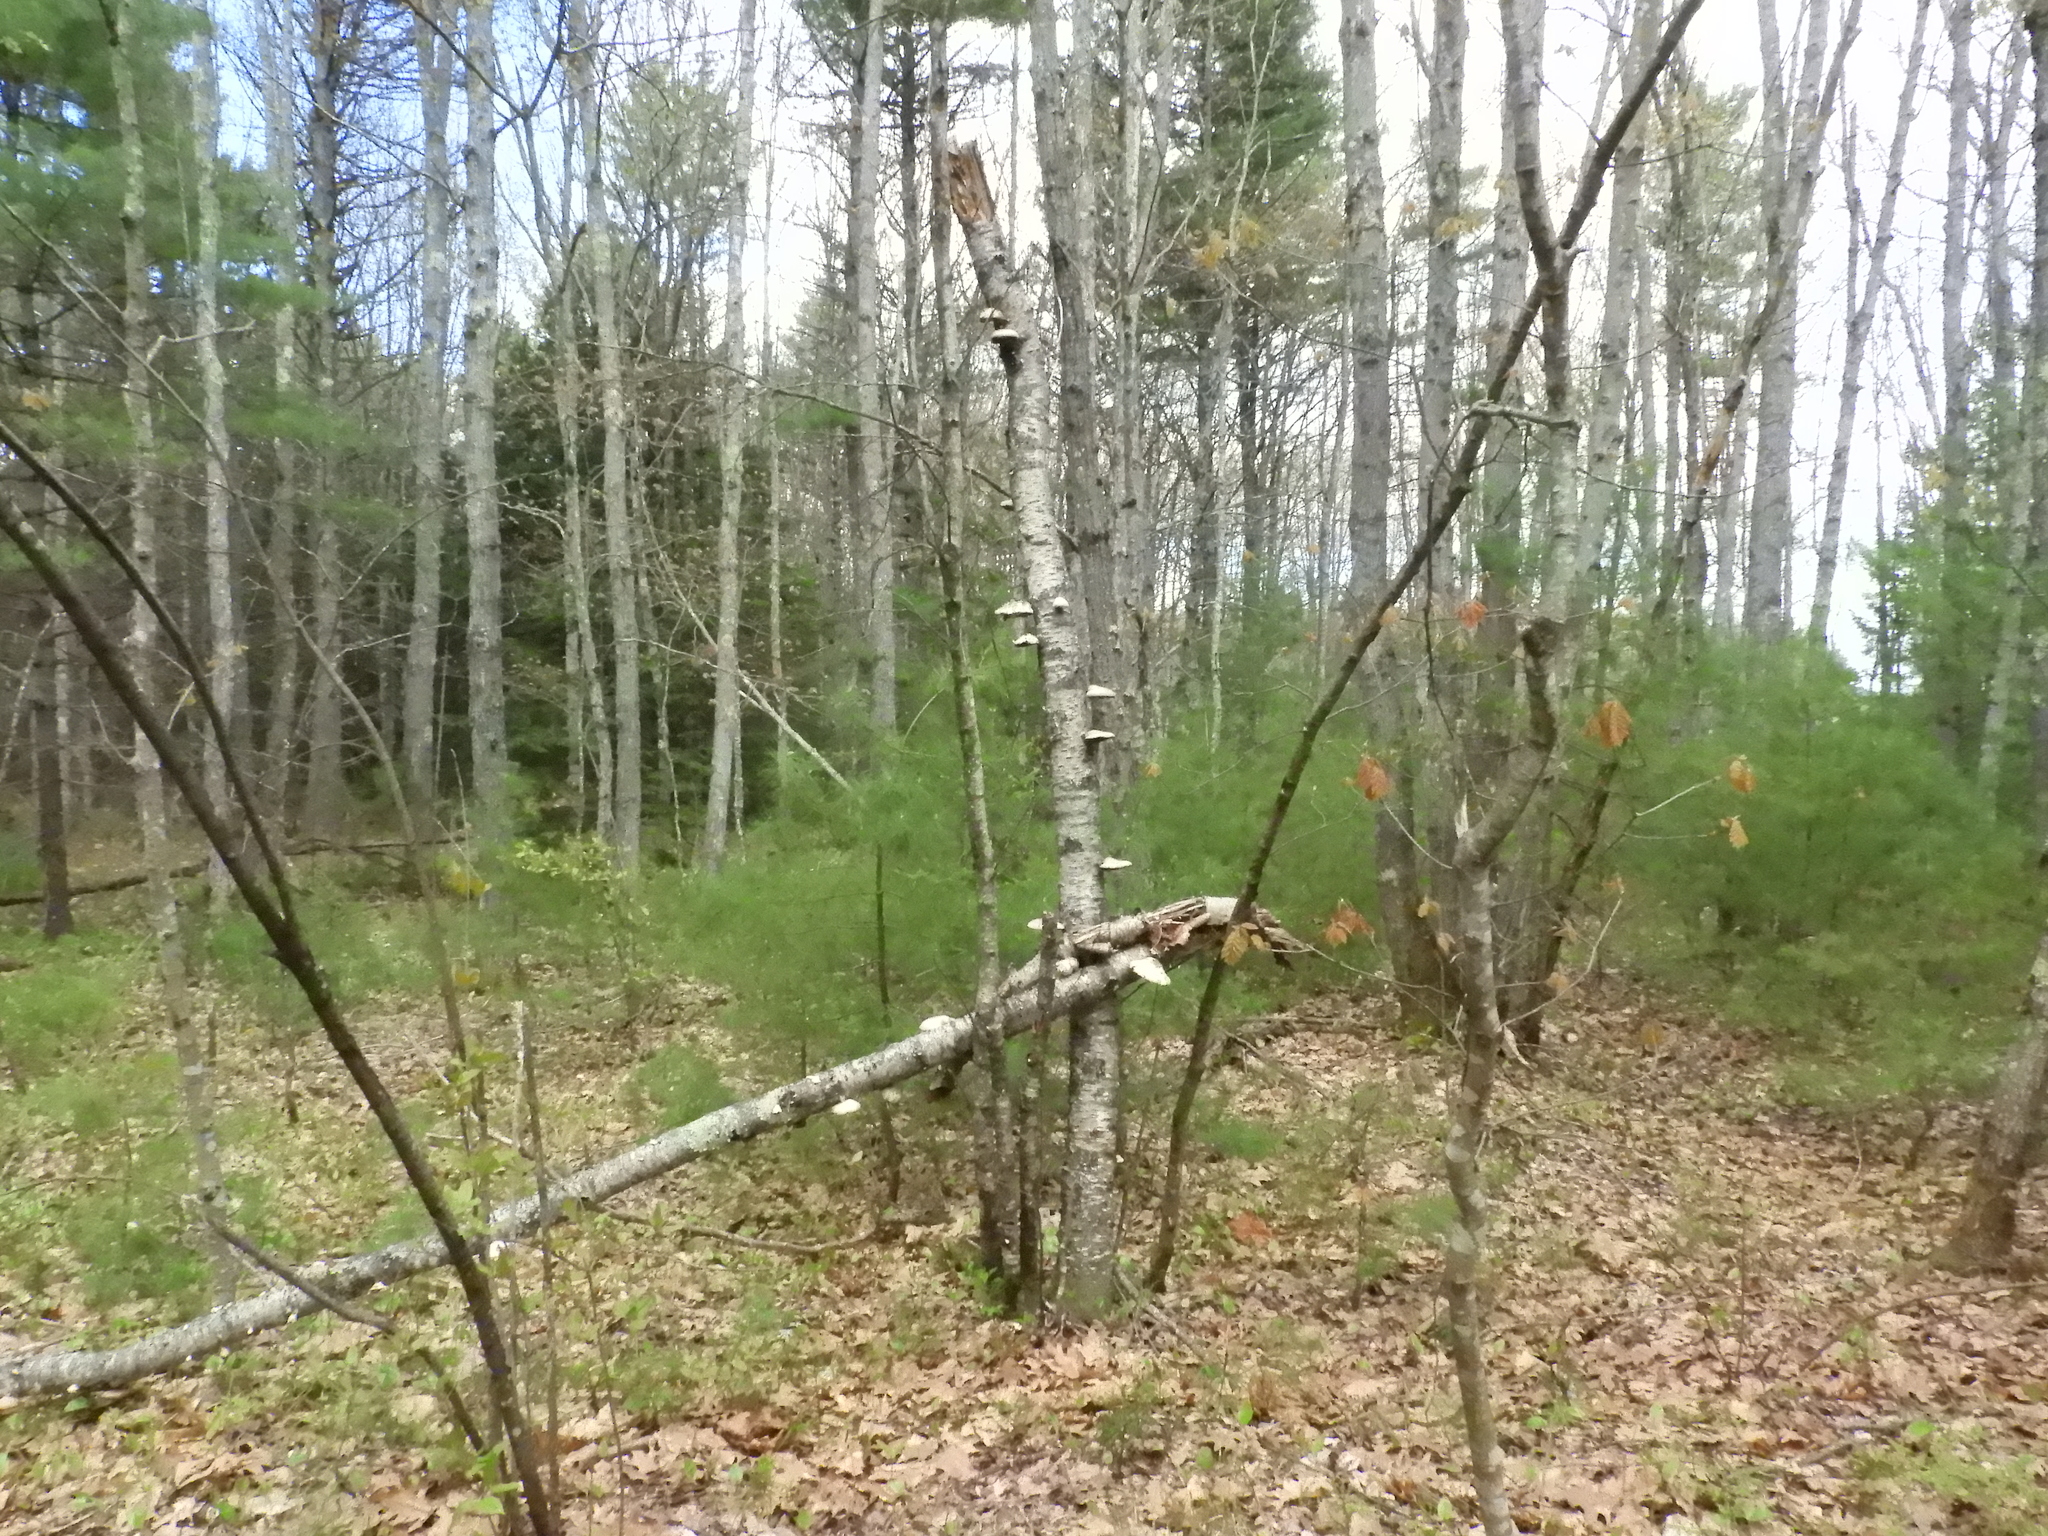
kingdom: Fungi
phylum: Basidiomycota
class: Agaricomycetes
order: Polyporales
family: Fomitopsidaceae
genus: Fomitopsis
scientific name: Fomitopsis betulina
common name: Birch polypore
